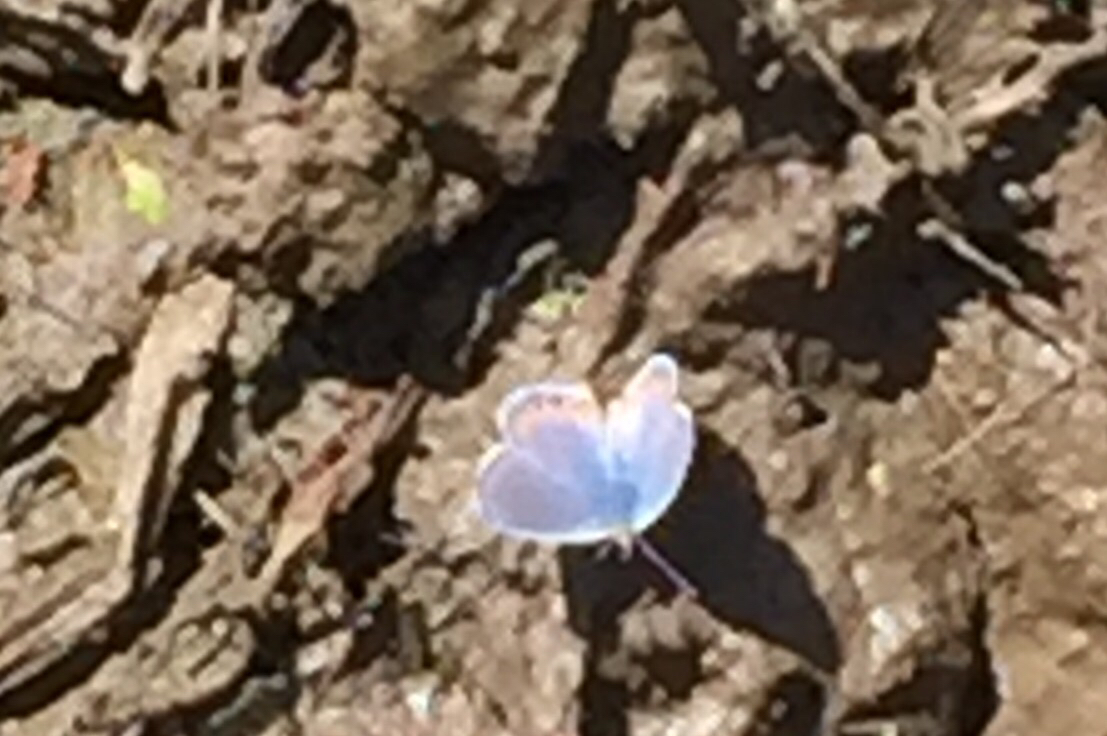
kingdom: Animalia
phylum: Arthropoda
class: Insecta
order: Lepidoptera
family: Lycaenidae
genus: Icaricia
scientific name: Icaricia acmon
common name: Acmon blue
